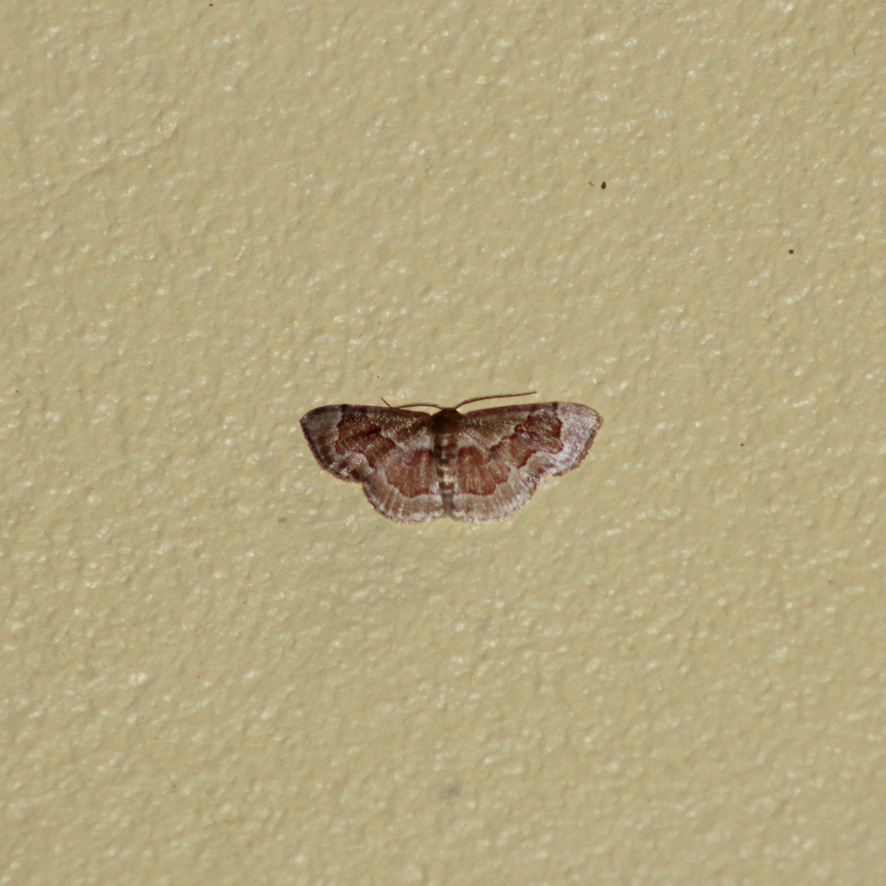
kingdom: Animalia
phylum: Arthropoda
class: Insecta
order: Lepidoptera
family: Geometridae
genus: Leptostales
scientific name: Leptostales adela
